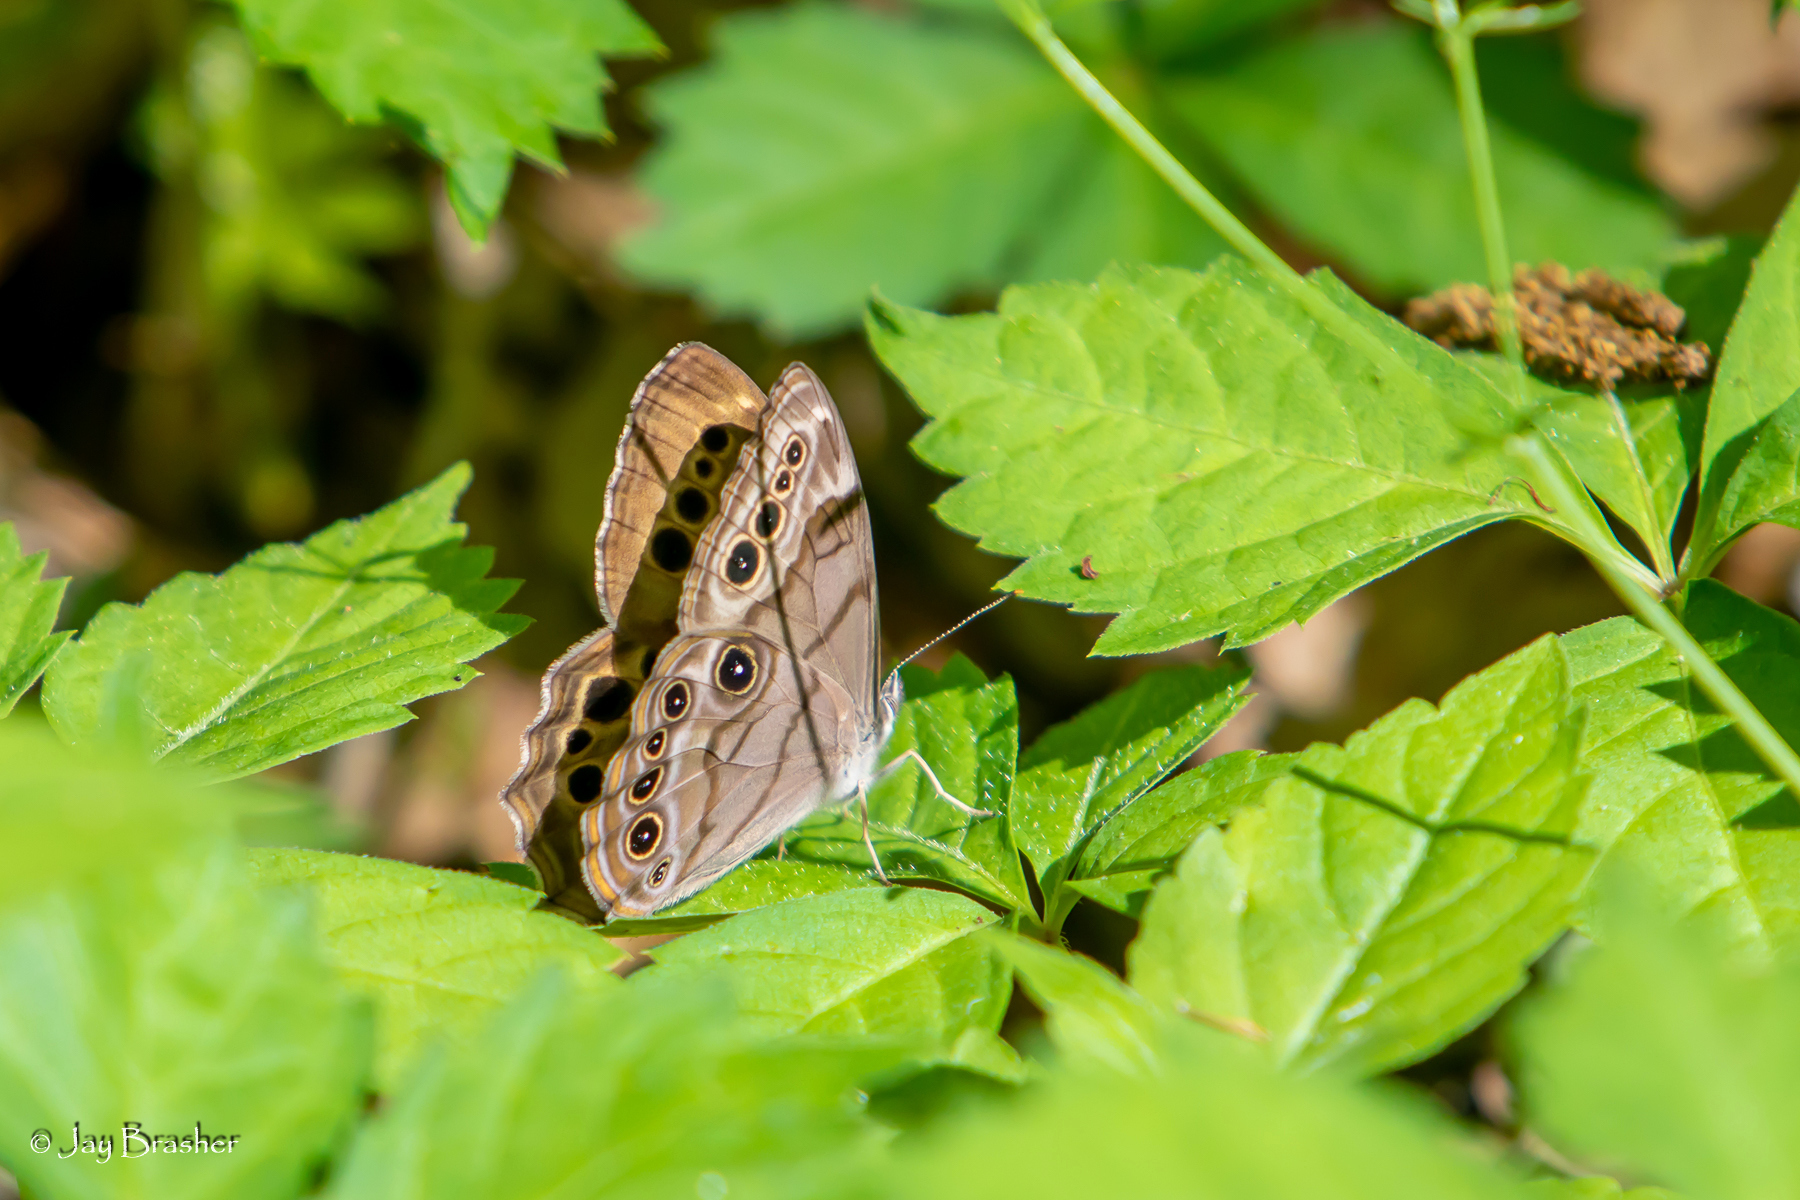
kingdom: Animalia
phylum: Arthropoda
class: Insecta
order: Lepidoptera
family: Nymphalidae
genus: Lethe
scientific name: Lethe anthedon
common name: Northern pearly-eye
